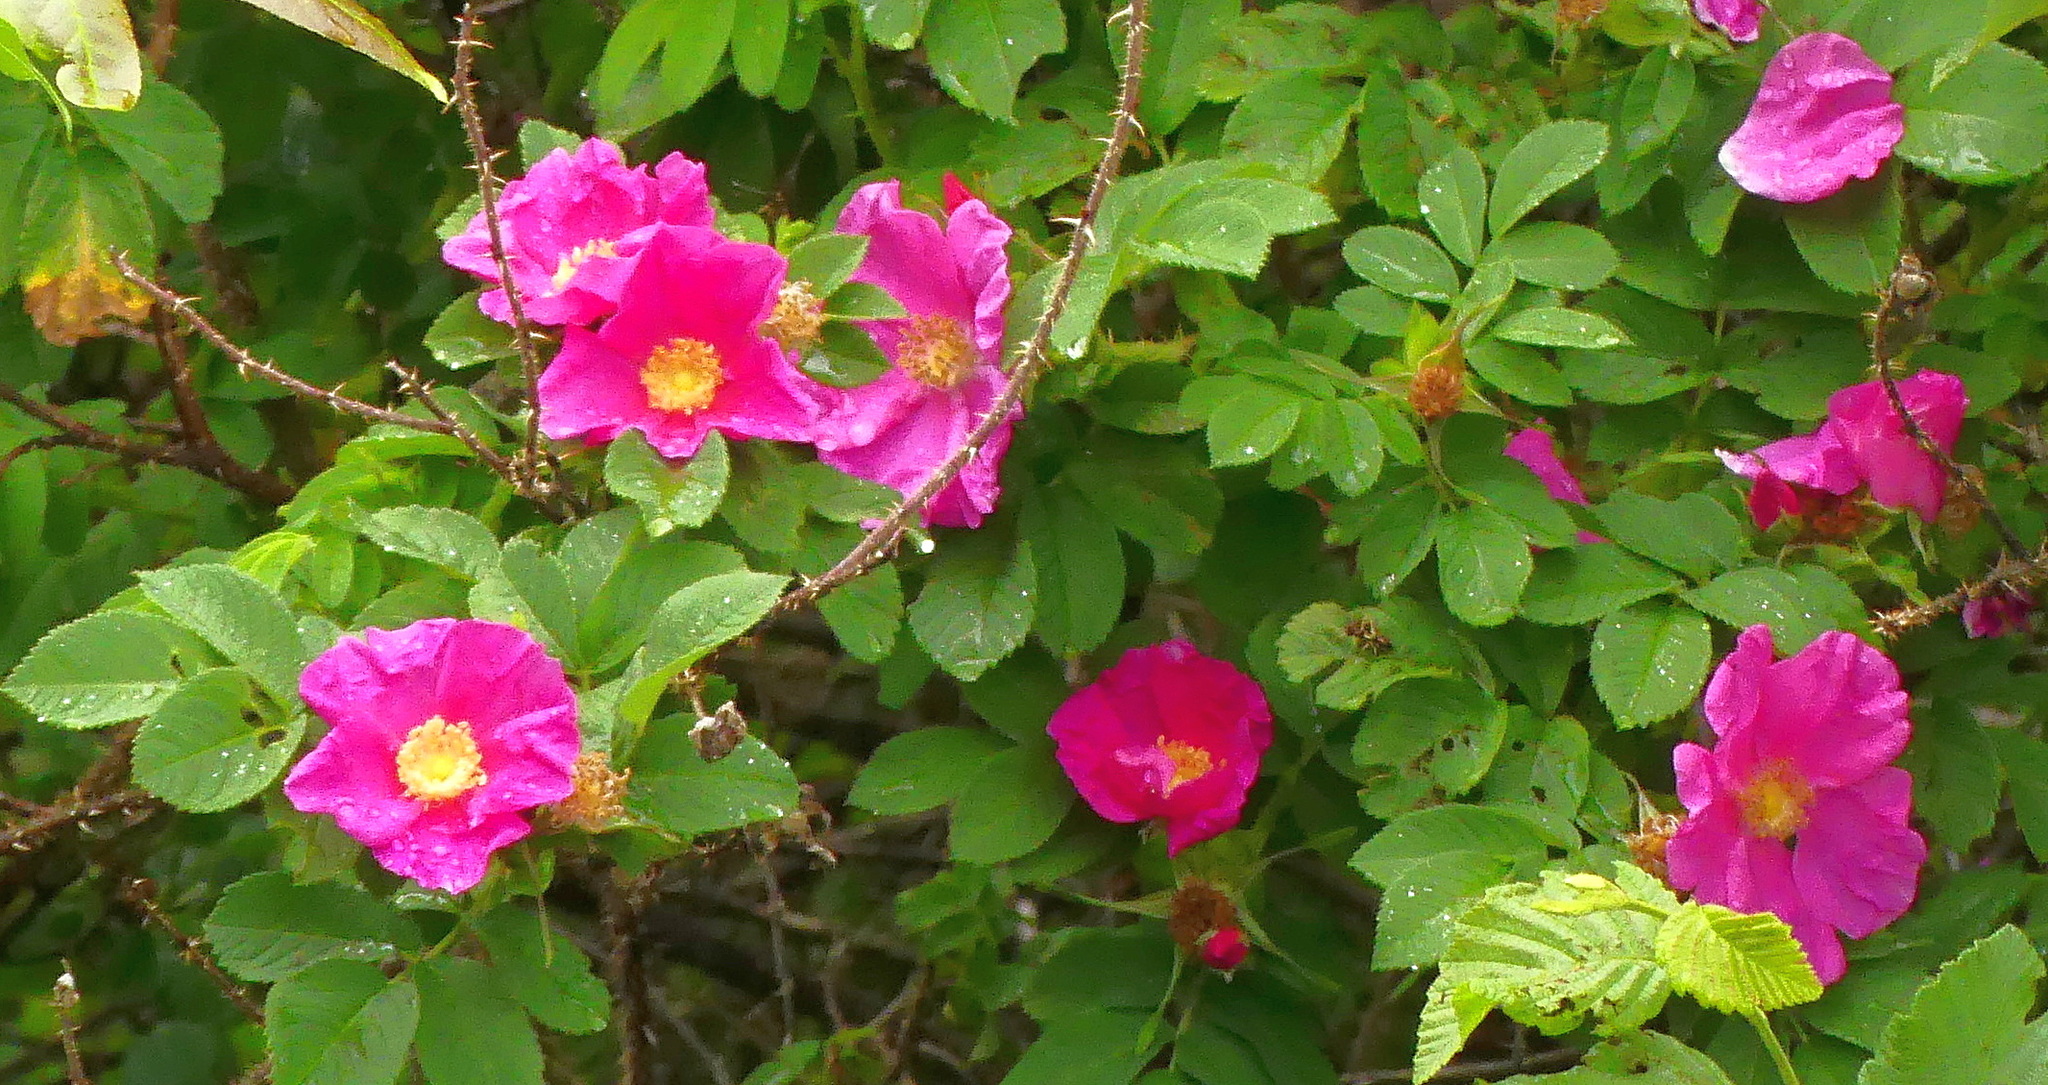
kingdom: Plantae
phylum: Tracheophyta
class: Magnoliopsida
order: Rosales
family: Rosaceae
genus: Rosa
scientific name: Rosa rugosa
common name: Japanese rose
